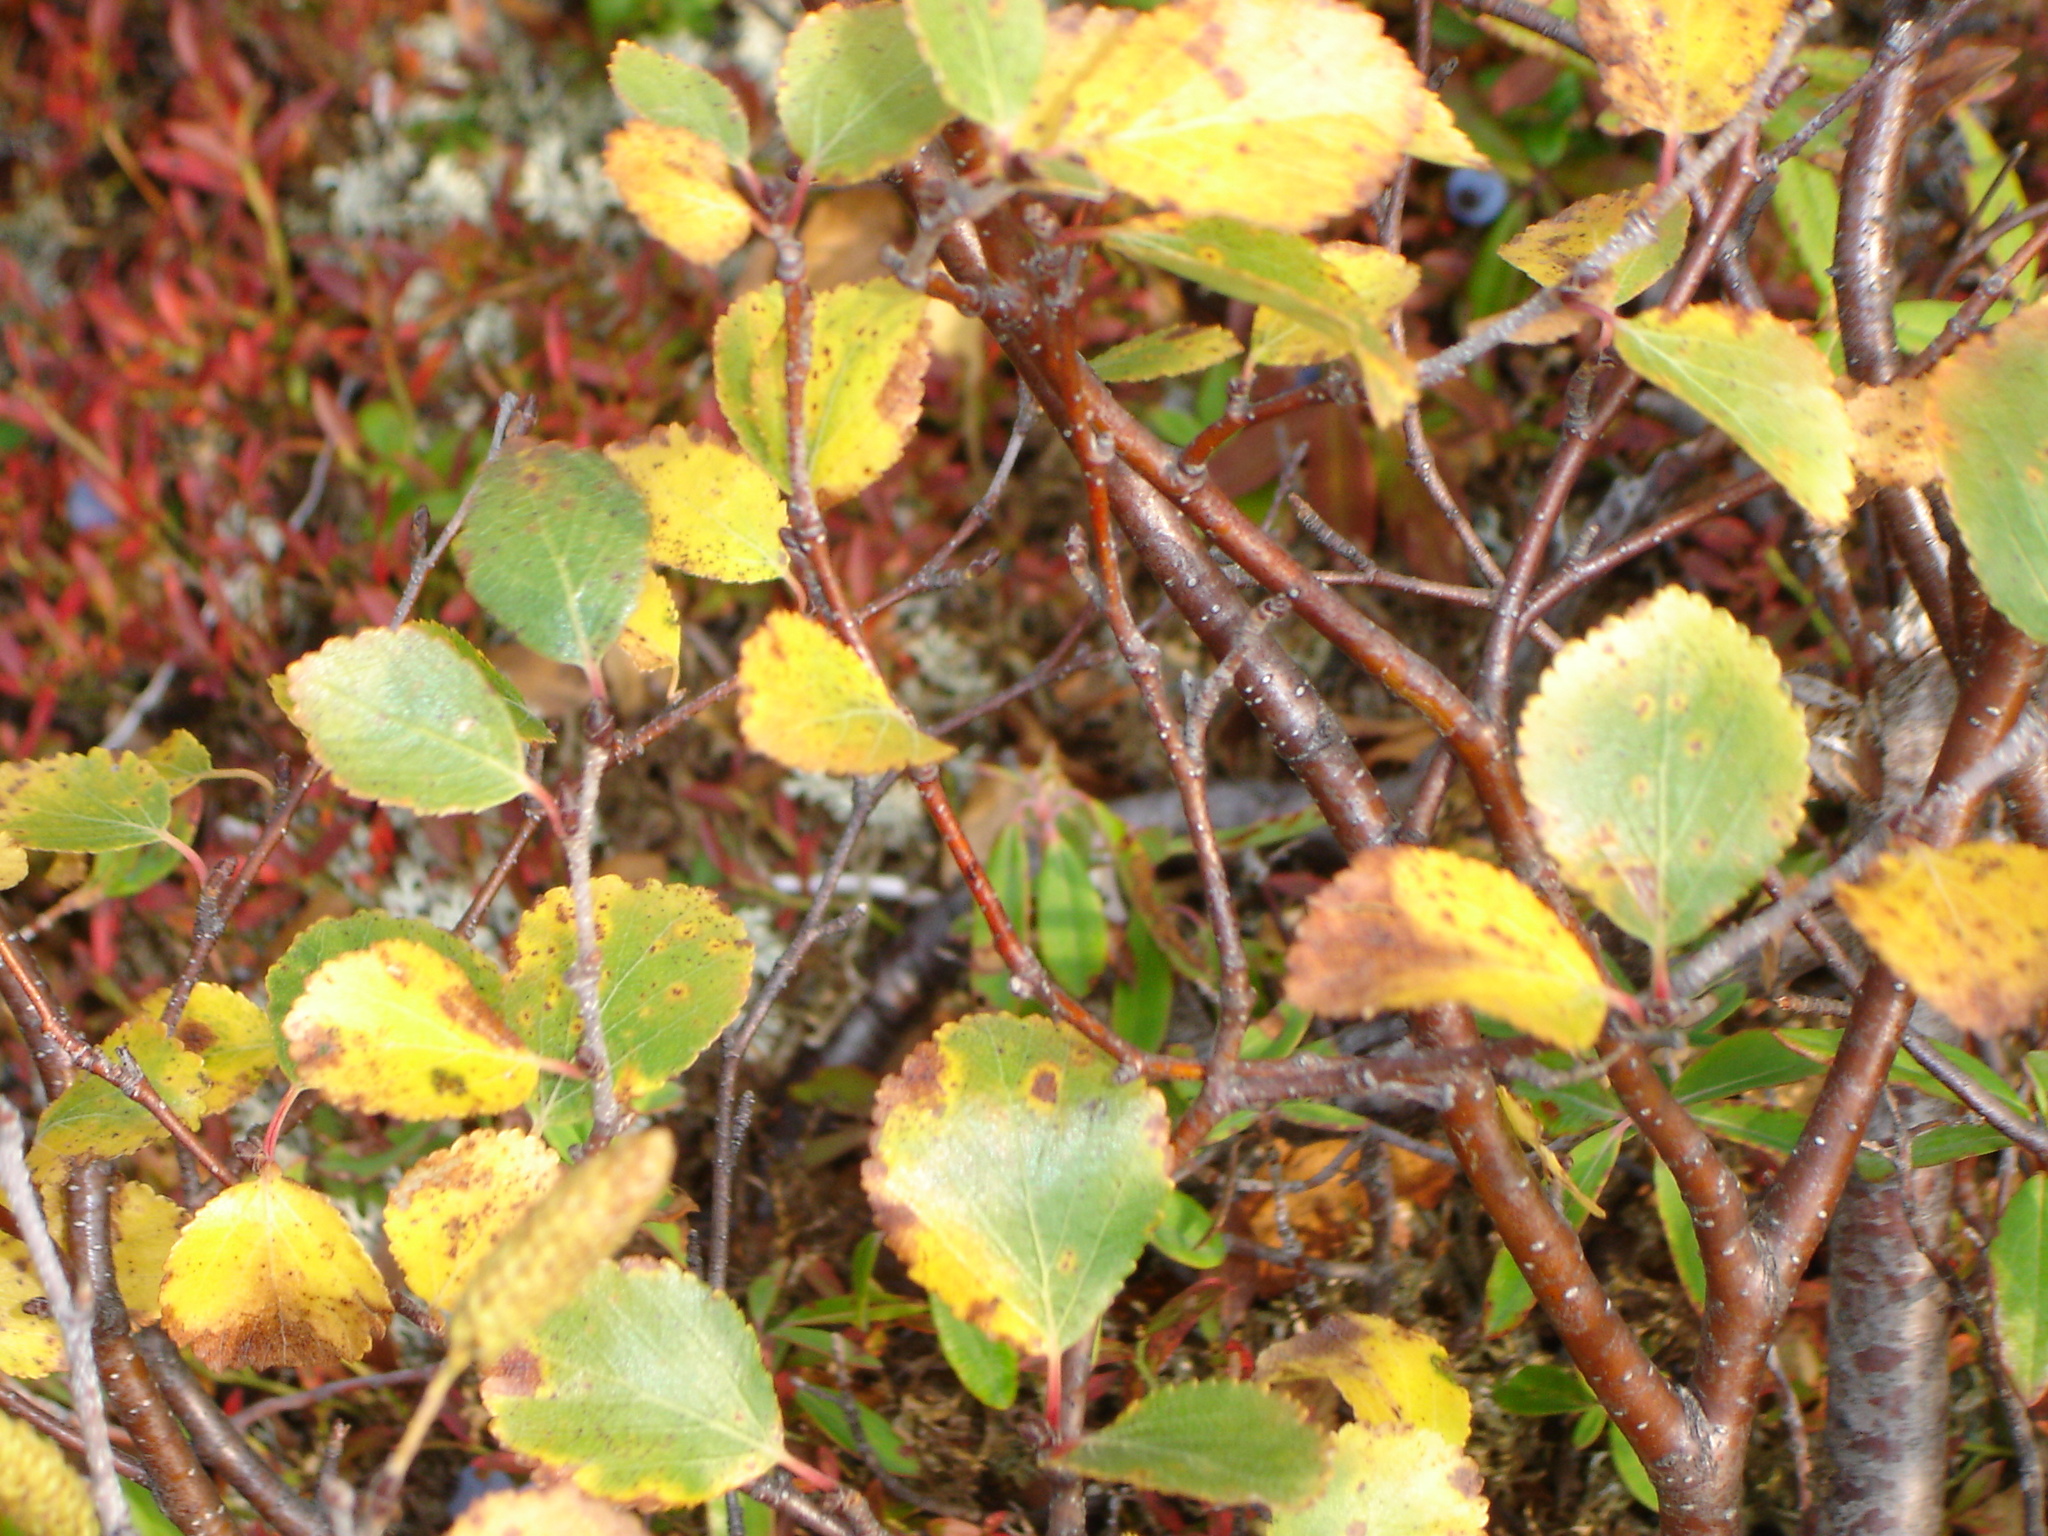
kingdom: Plantae
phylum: Tracheophyta
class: Magnoliopsida
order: Fagales
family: Betulaceae
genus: Betula
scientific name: Betula glandulosa
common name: Dwarf birch
